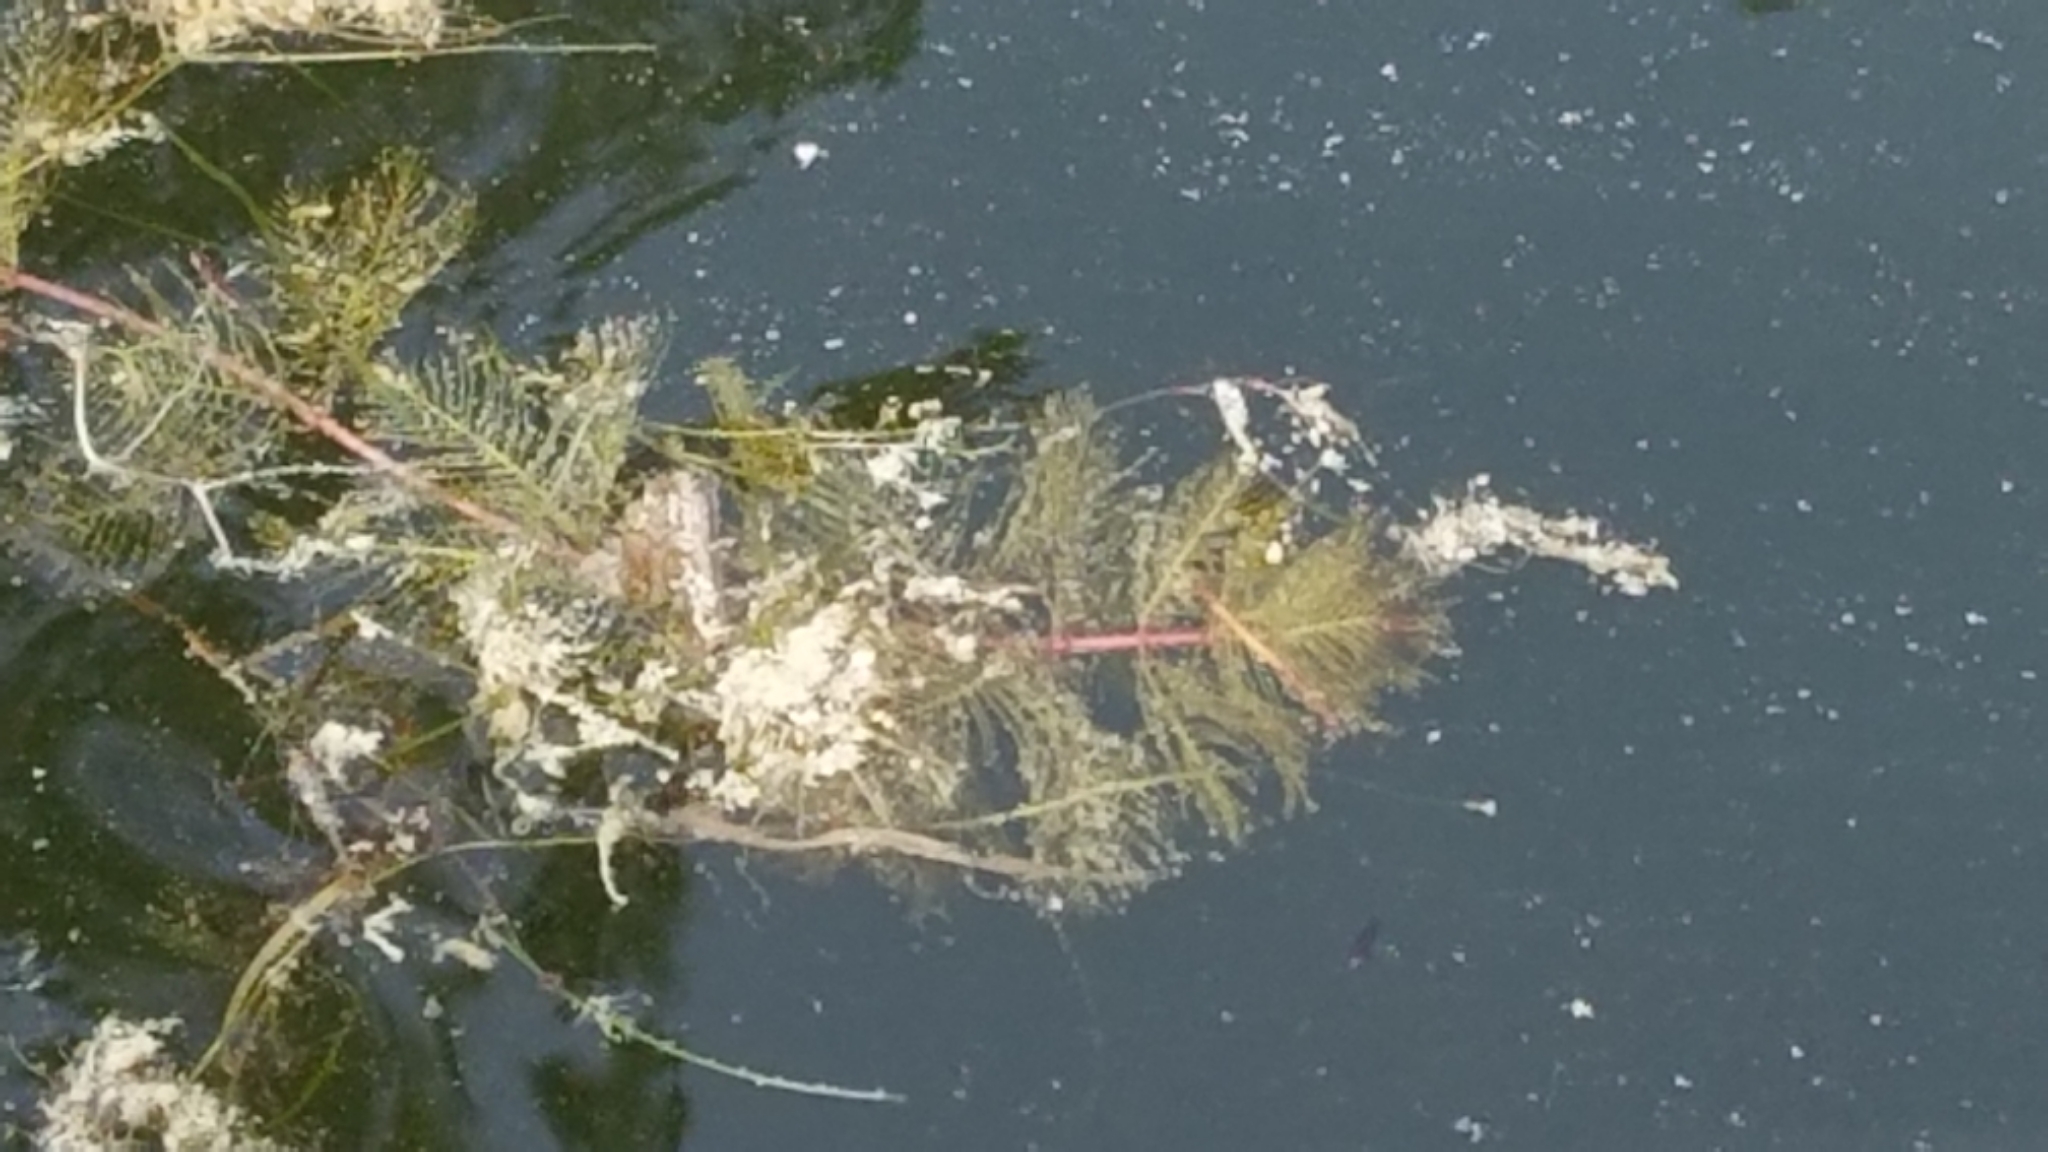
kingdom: Plantae
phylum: Tracheophyta
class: Magnoliopsida
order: Saxifragales
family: Haloragaceae
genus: Myriophyllum
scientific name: Myriophyllum spicatum
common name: Spiked water-milfoil
